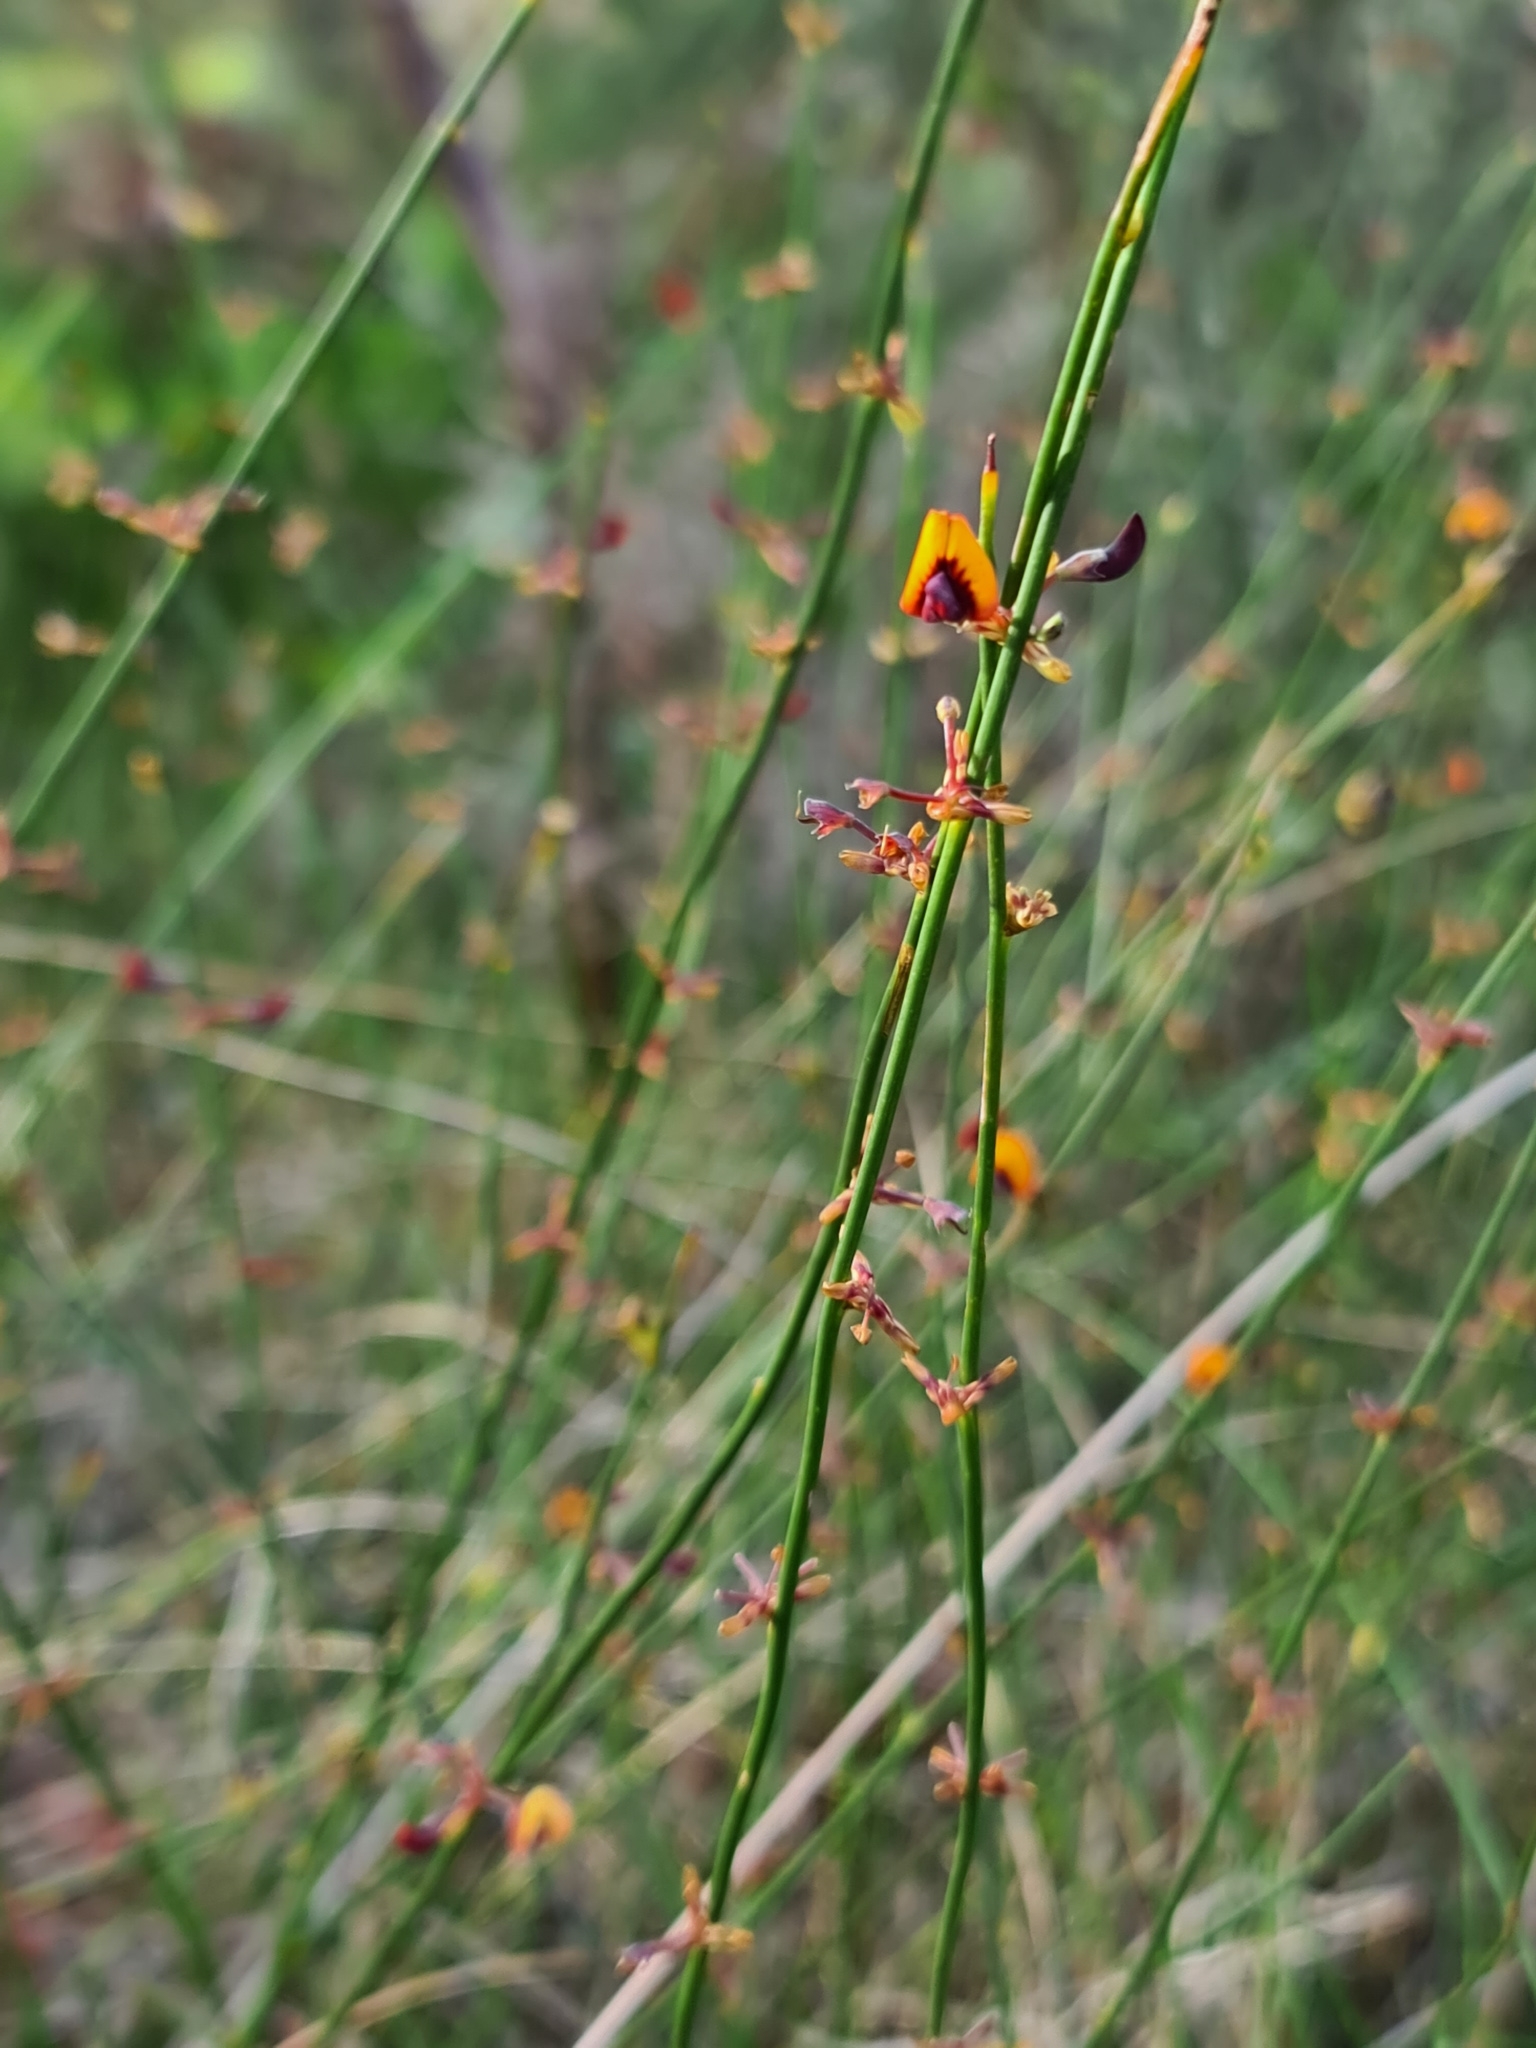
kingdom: Plantae
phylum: Tracheophyta
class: Magnoliopsida
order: Fabales
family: Fabaceae
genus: Daviesia
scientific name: Daviesia triflora
